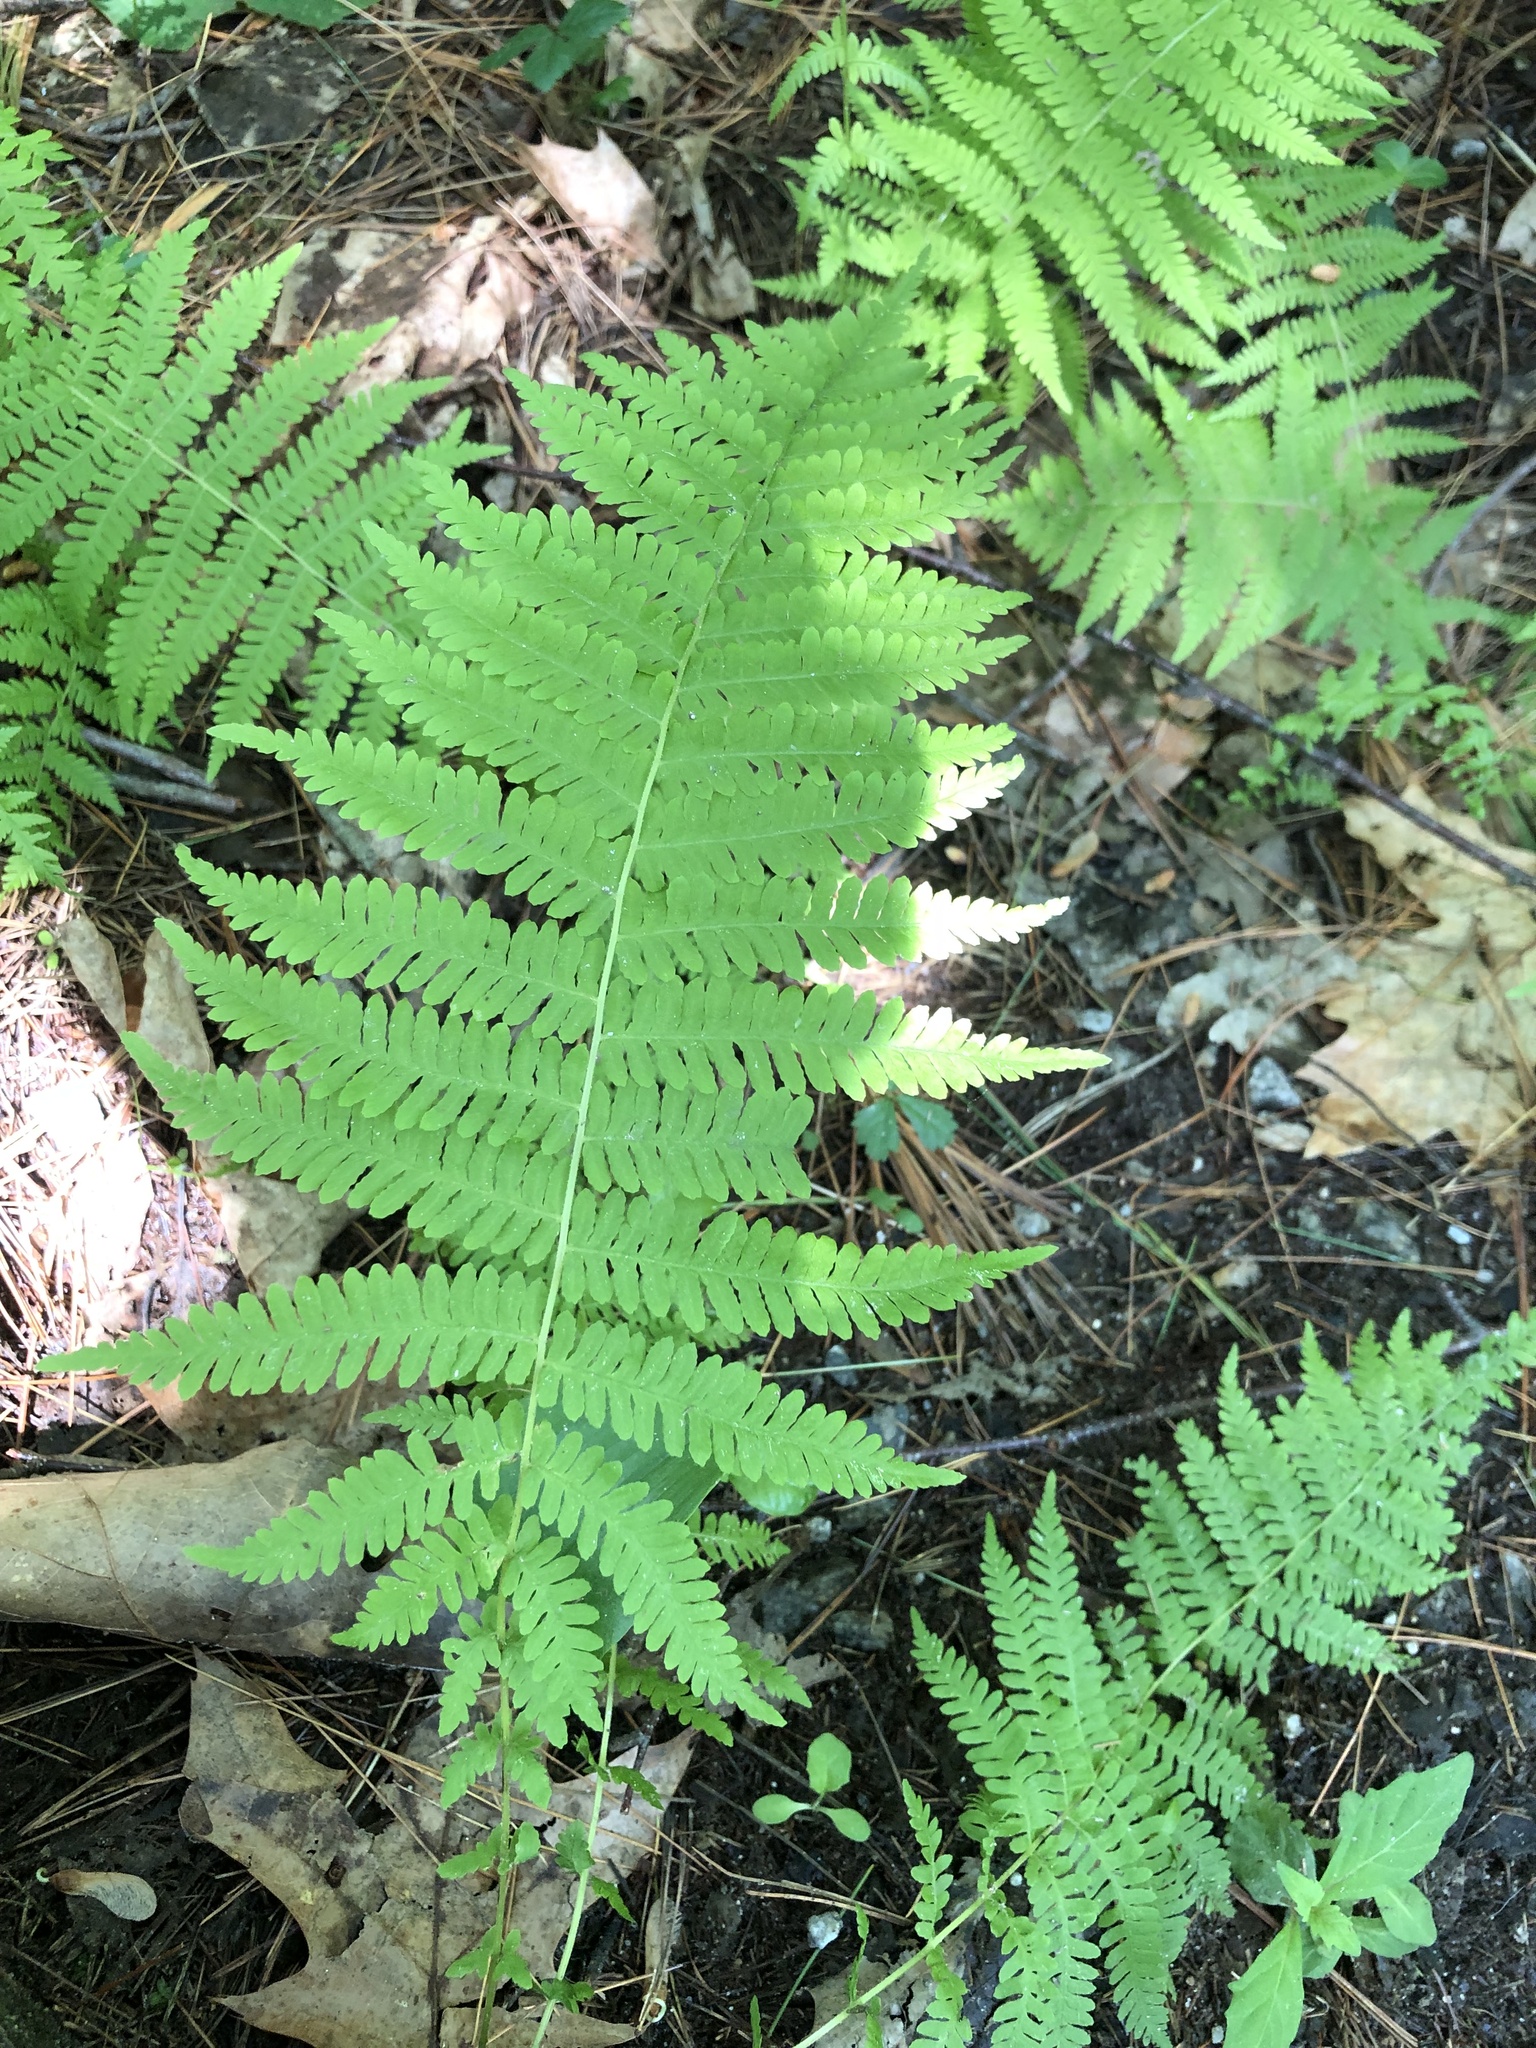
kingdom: Plantae
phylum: Tracheophyta
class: Polypodiopsida
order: Polypodiales
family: Thelypteridaceae
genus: Amauropelta
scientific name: Amauropelta noveboracensis
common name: New york fern
